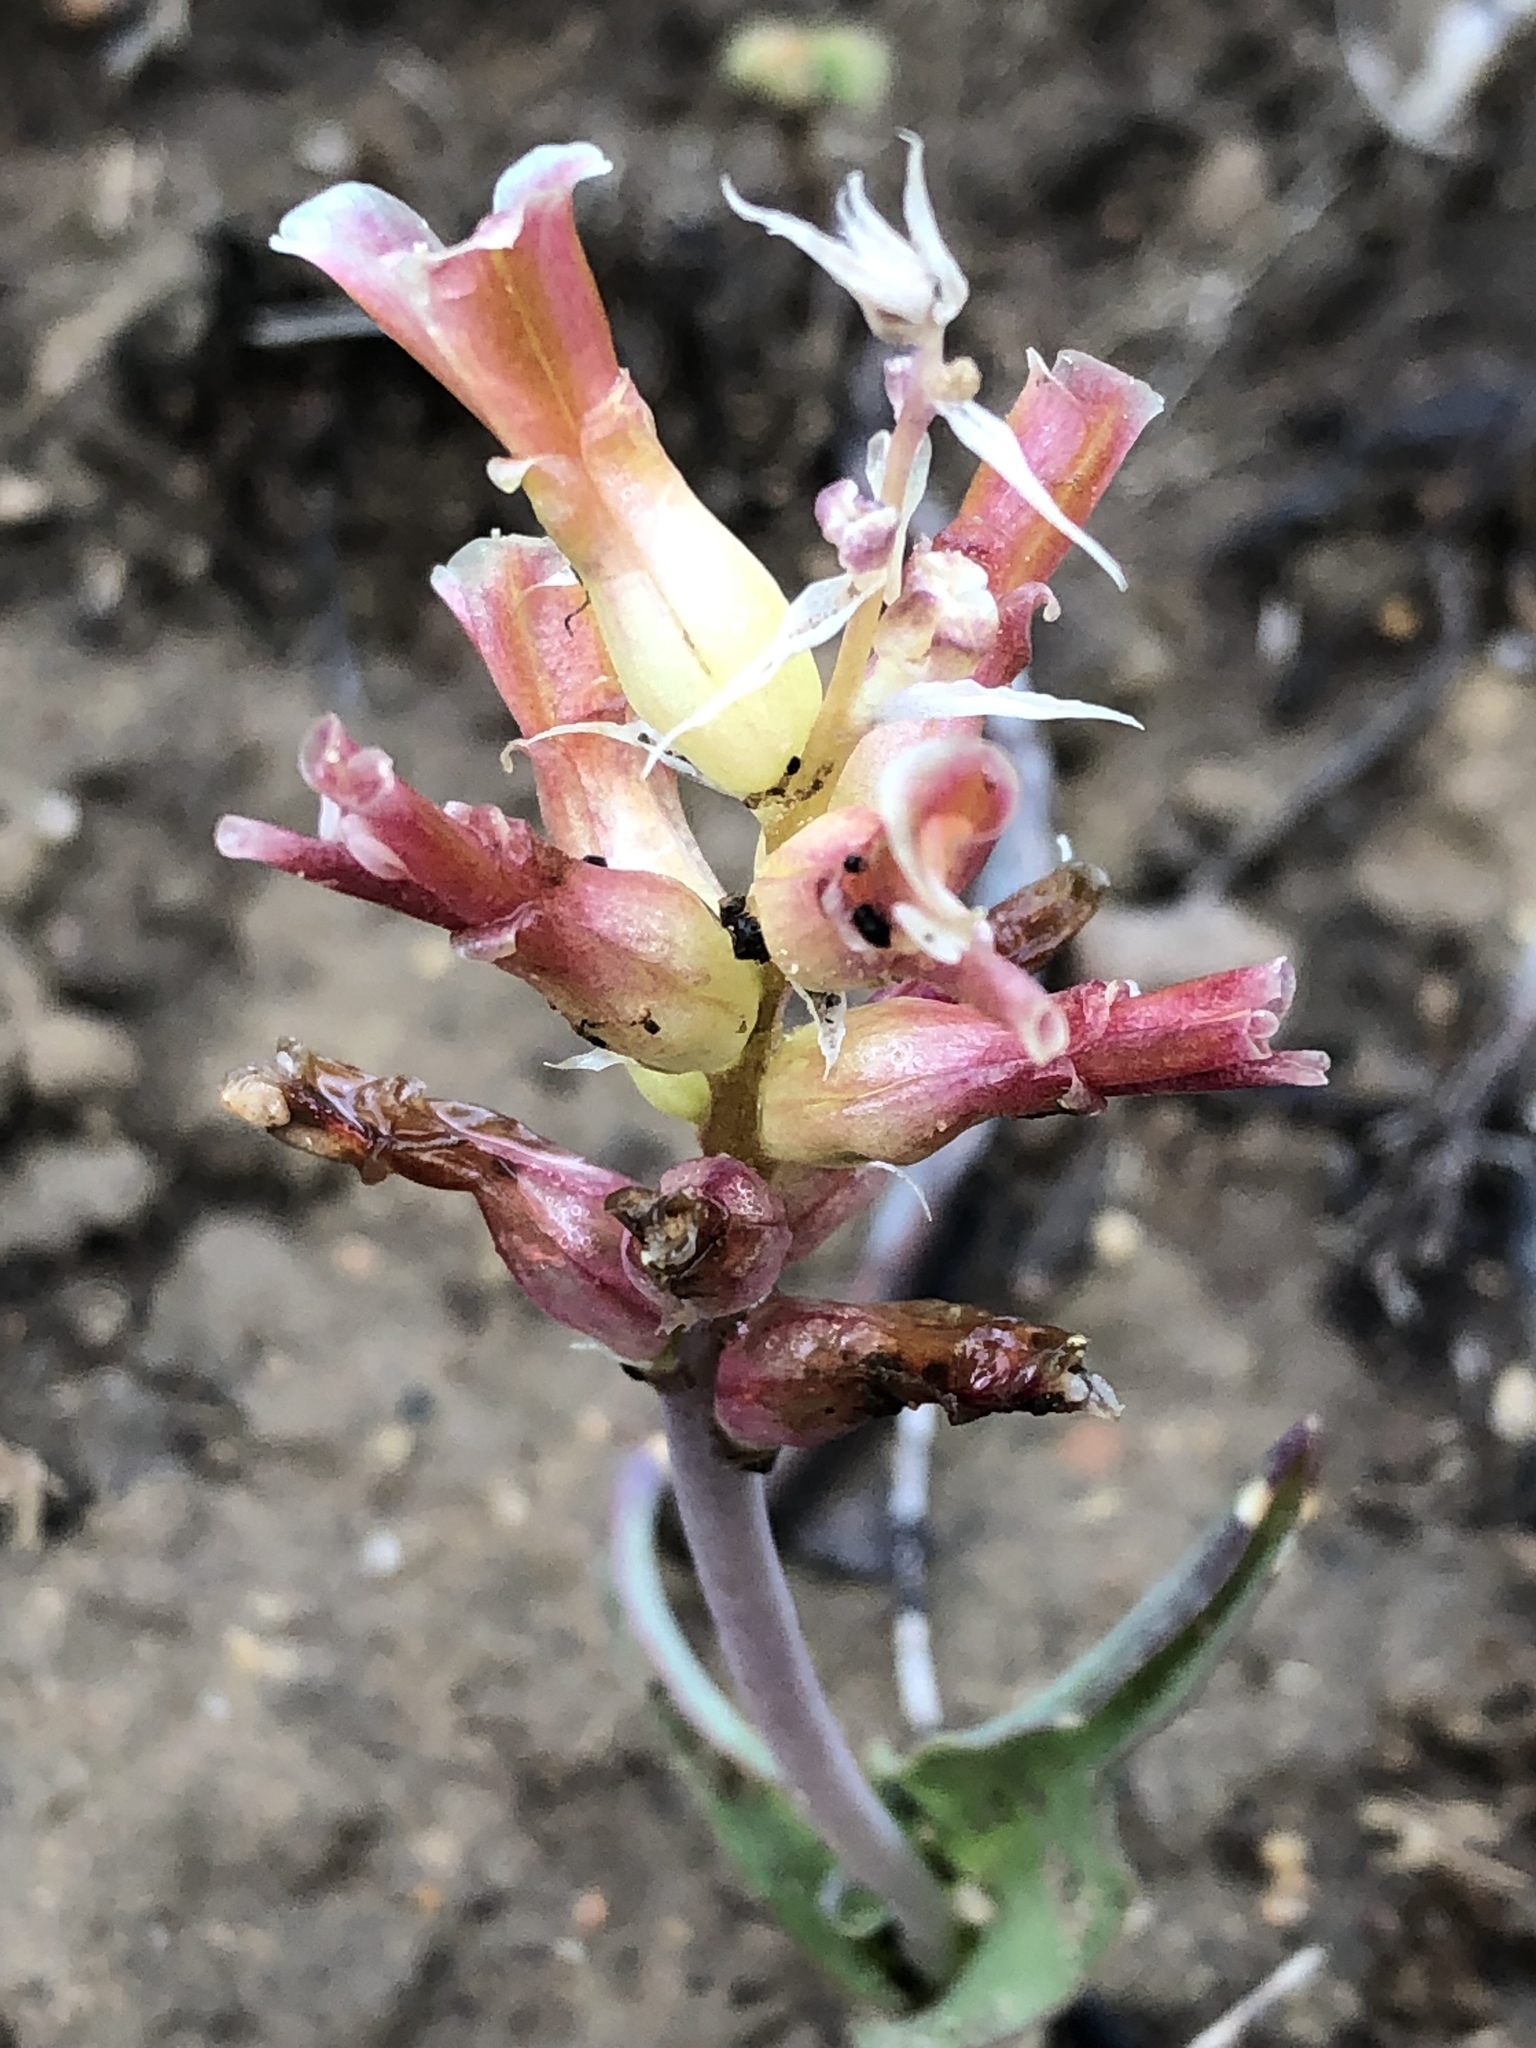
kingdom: Plantae
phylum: Tracheophyta
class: Liliopsida
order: Asparagales
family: Asparagaceae
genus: Lachenalia
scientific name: Lachenalia orchioides
